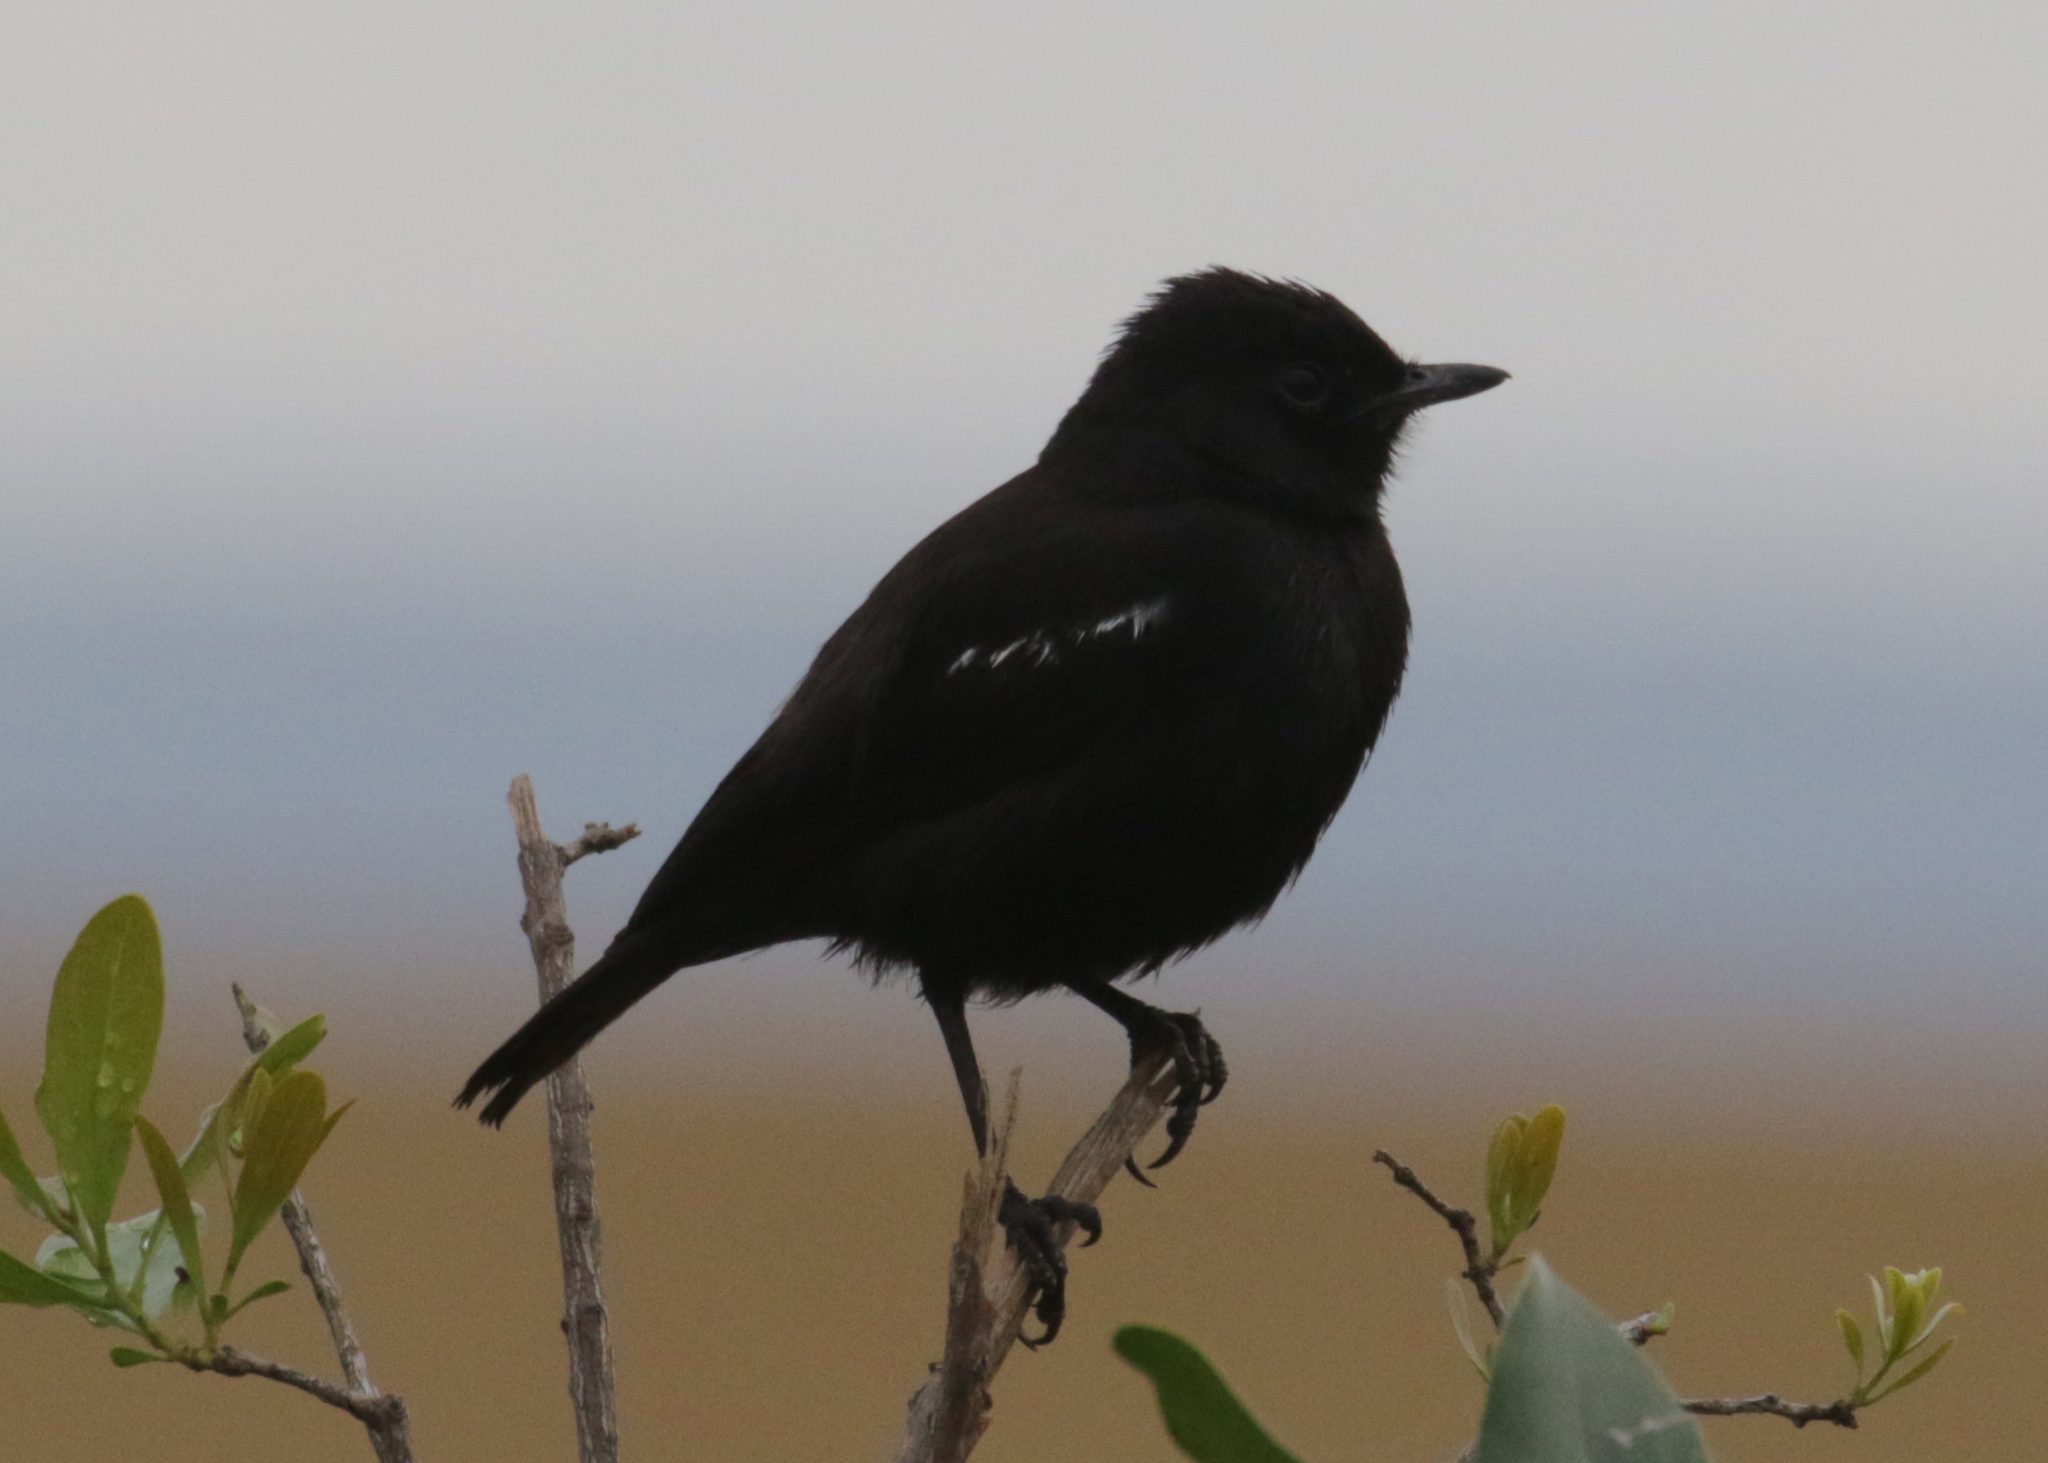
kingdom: Animalia
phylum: Chordata
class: Aves
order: Passeriformes
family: Muscicapidae
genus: Myrmecocichla
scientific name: Myrmecocichla nigra
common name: Sooty chat
